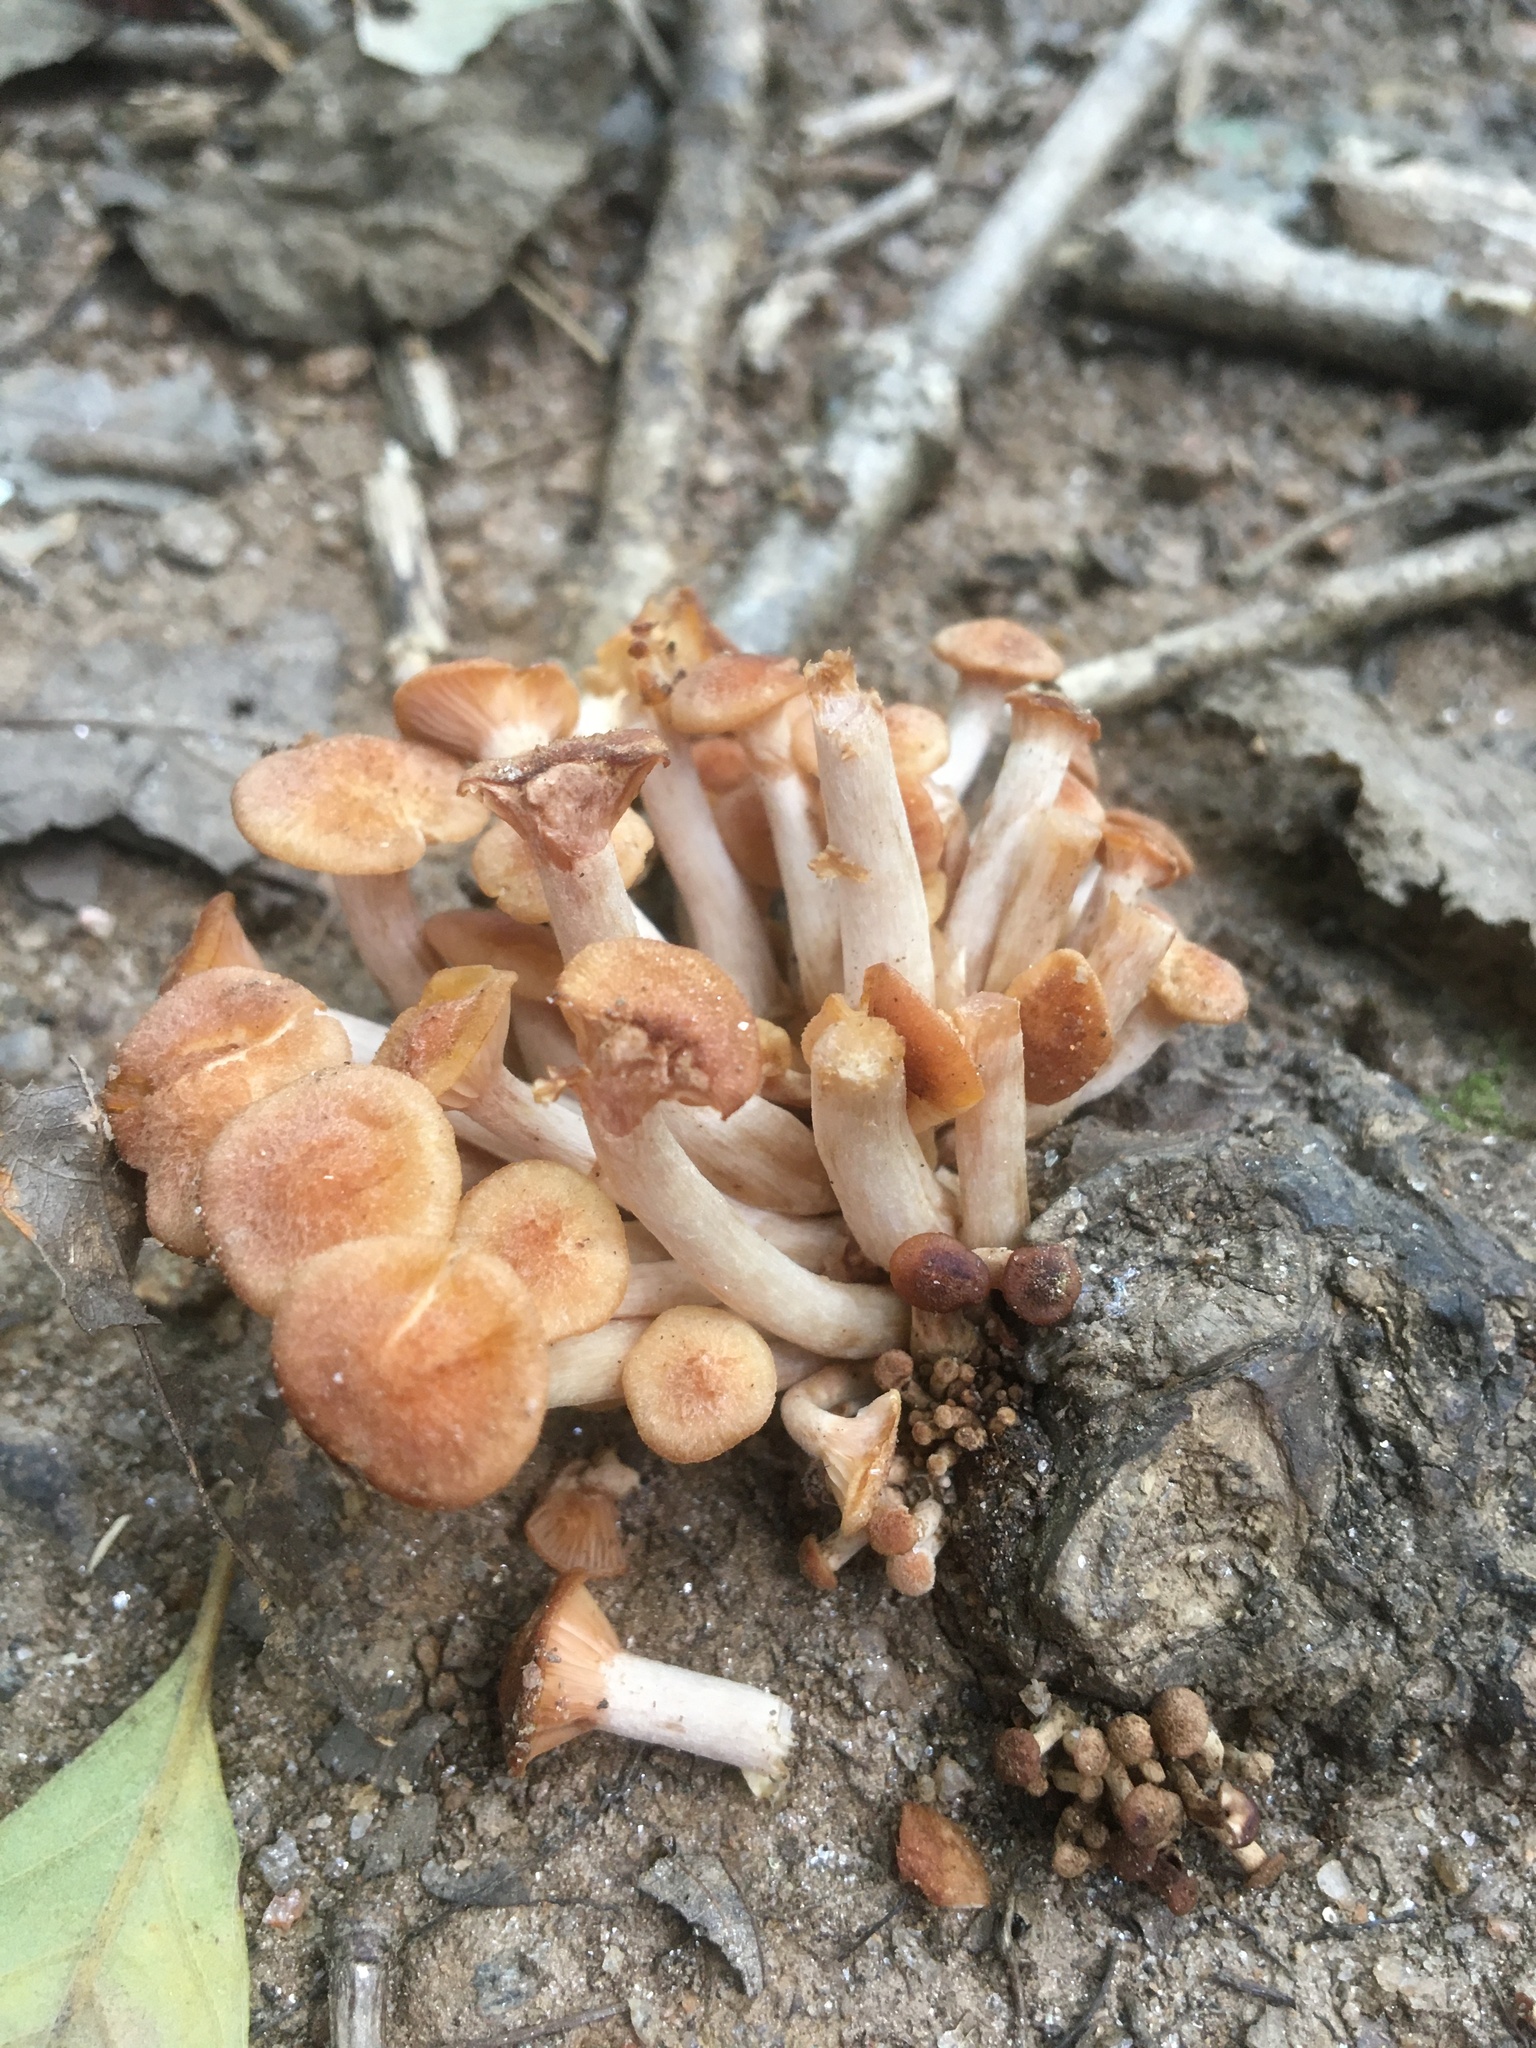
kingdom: Fungi
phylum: Basidiomycota
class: Agaricomycetes
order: Agaricales
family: Physalacriaceae
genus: Desarmillaria
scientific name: Desarmillaria caespitosa
